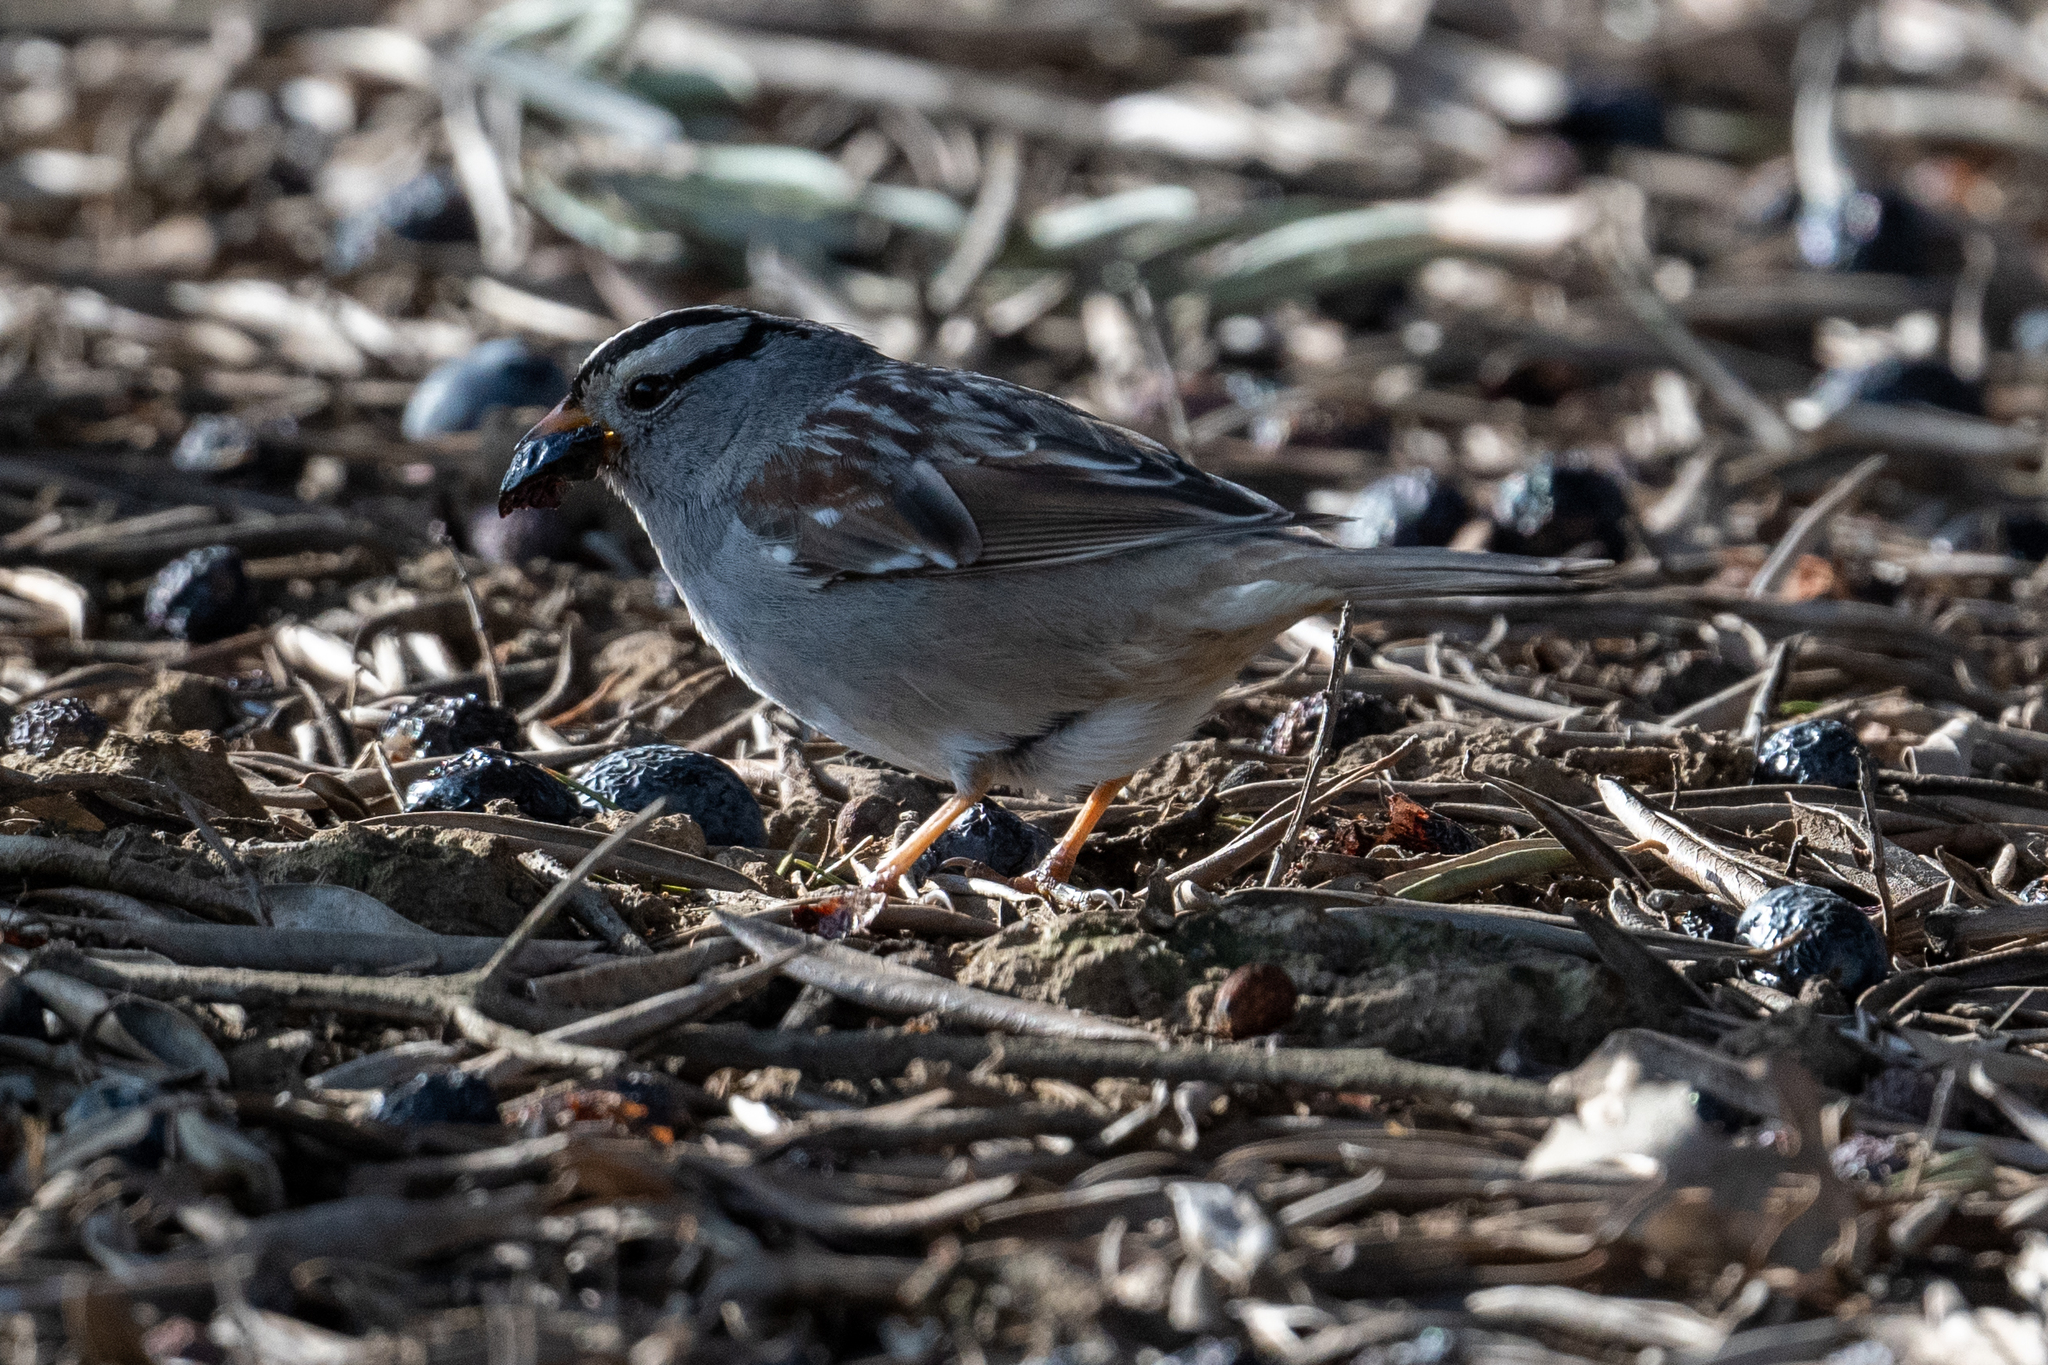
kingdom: Animalia
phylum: Chordata
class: Aves
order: Passeriformes
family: Passerellidae
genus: Zonotrichia
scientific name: Zonotrichia leucophrys
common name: White-crowned sparrow
